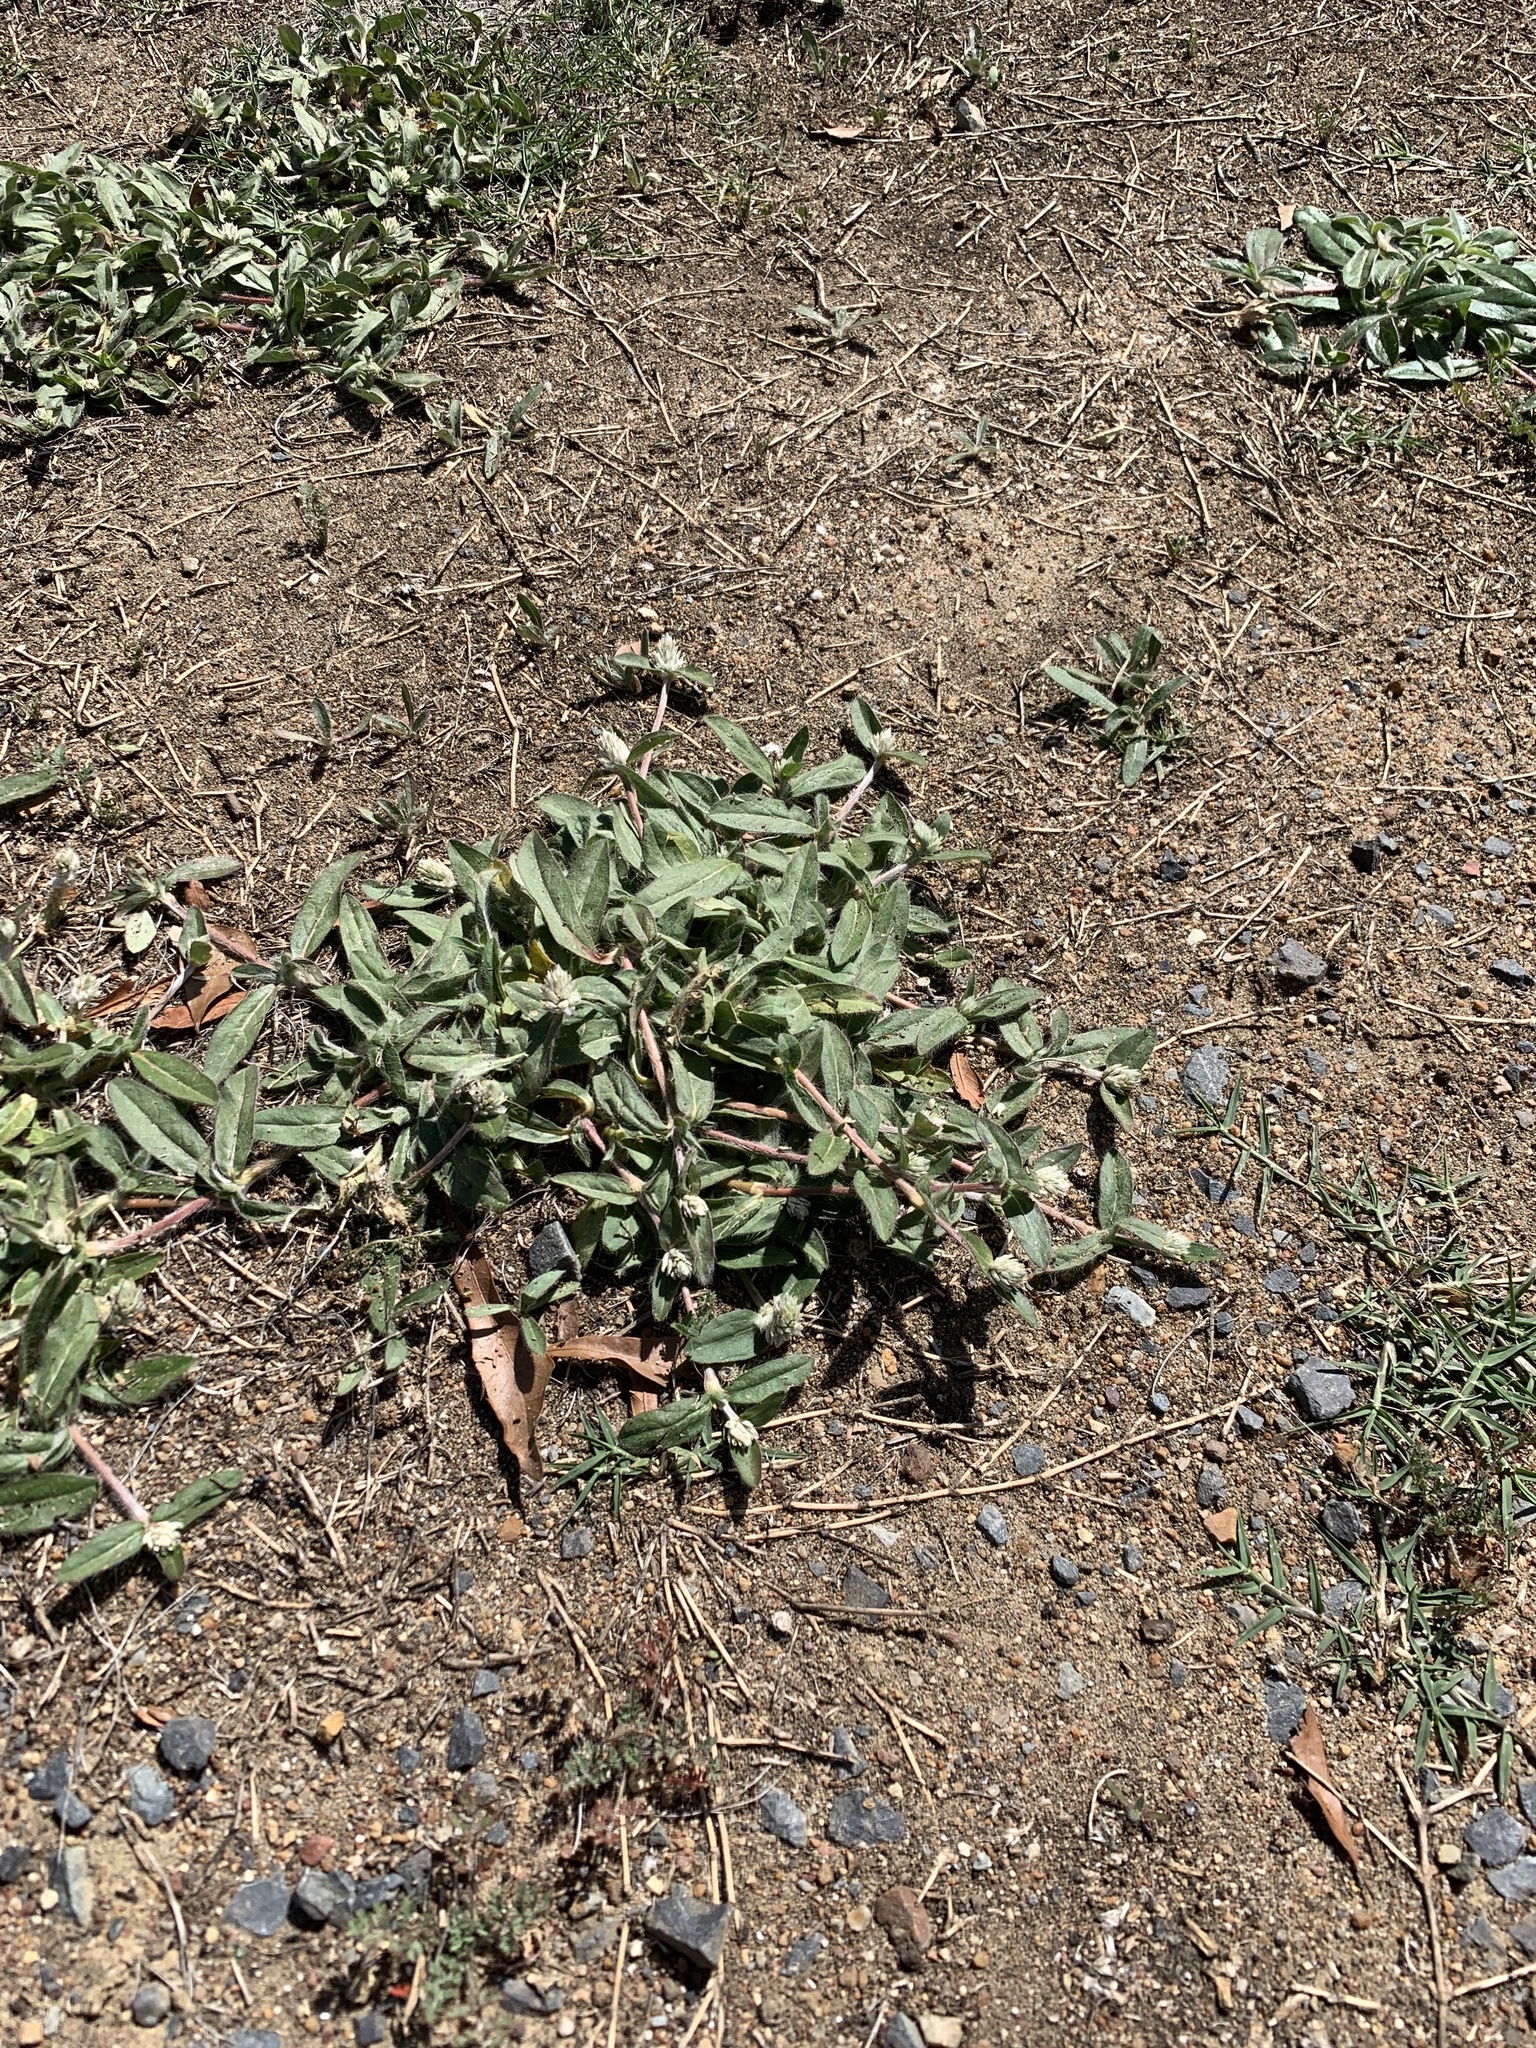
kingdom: Plantae
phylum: Tracheophyta
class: Magnoliopsida
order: Caryophyllales
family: Amaranthaceae
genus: Gomphrena
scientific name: Gomphrena celosioides
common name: Gomphrena-weed
